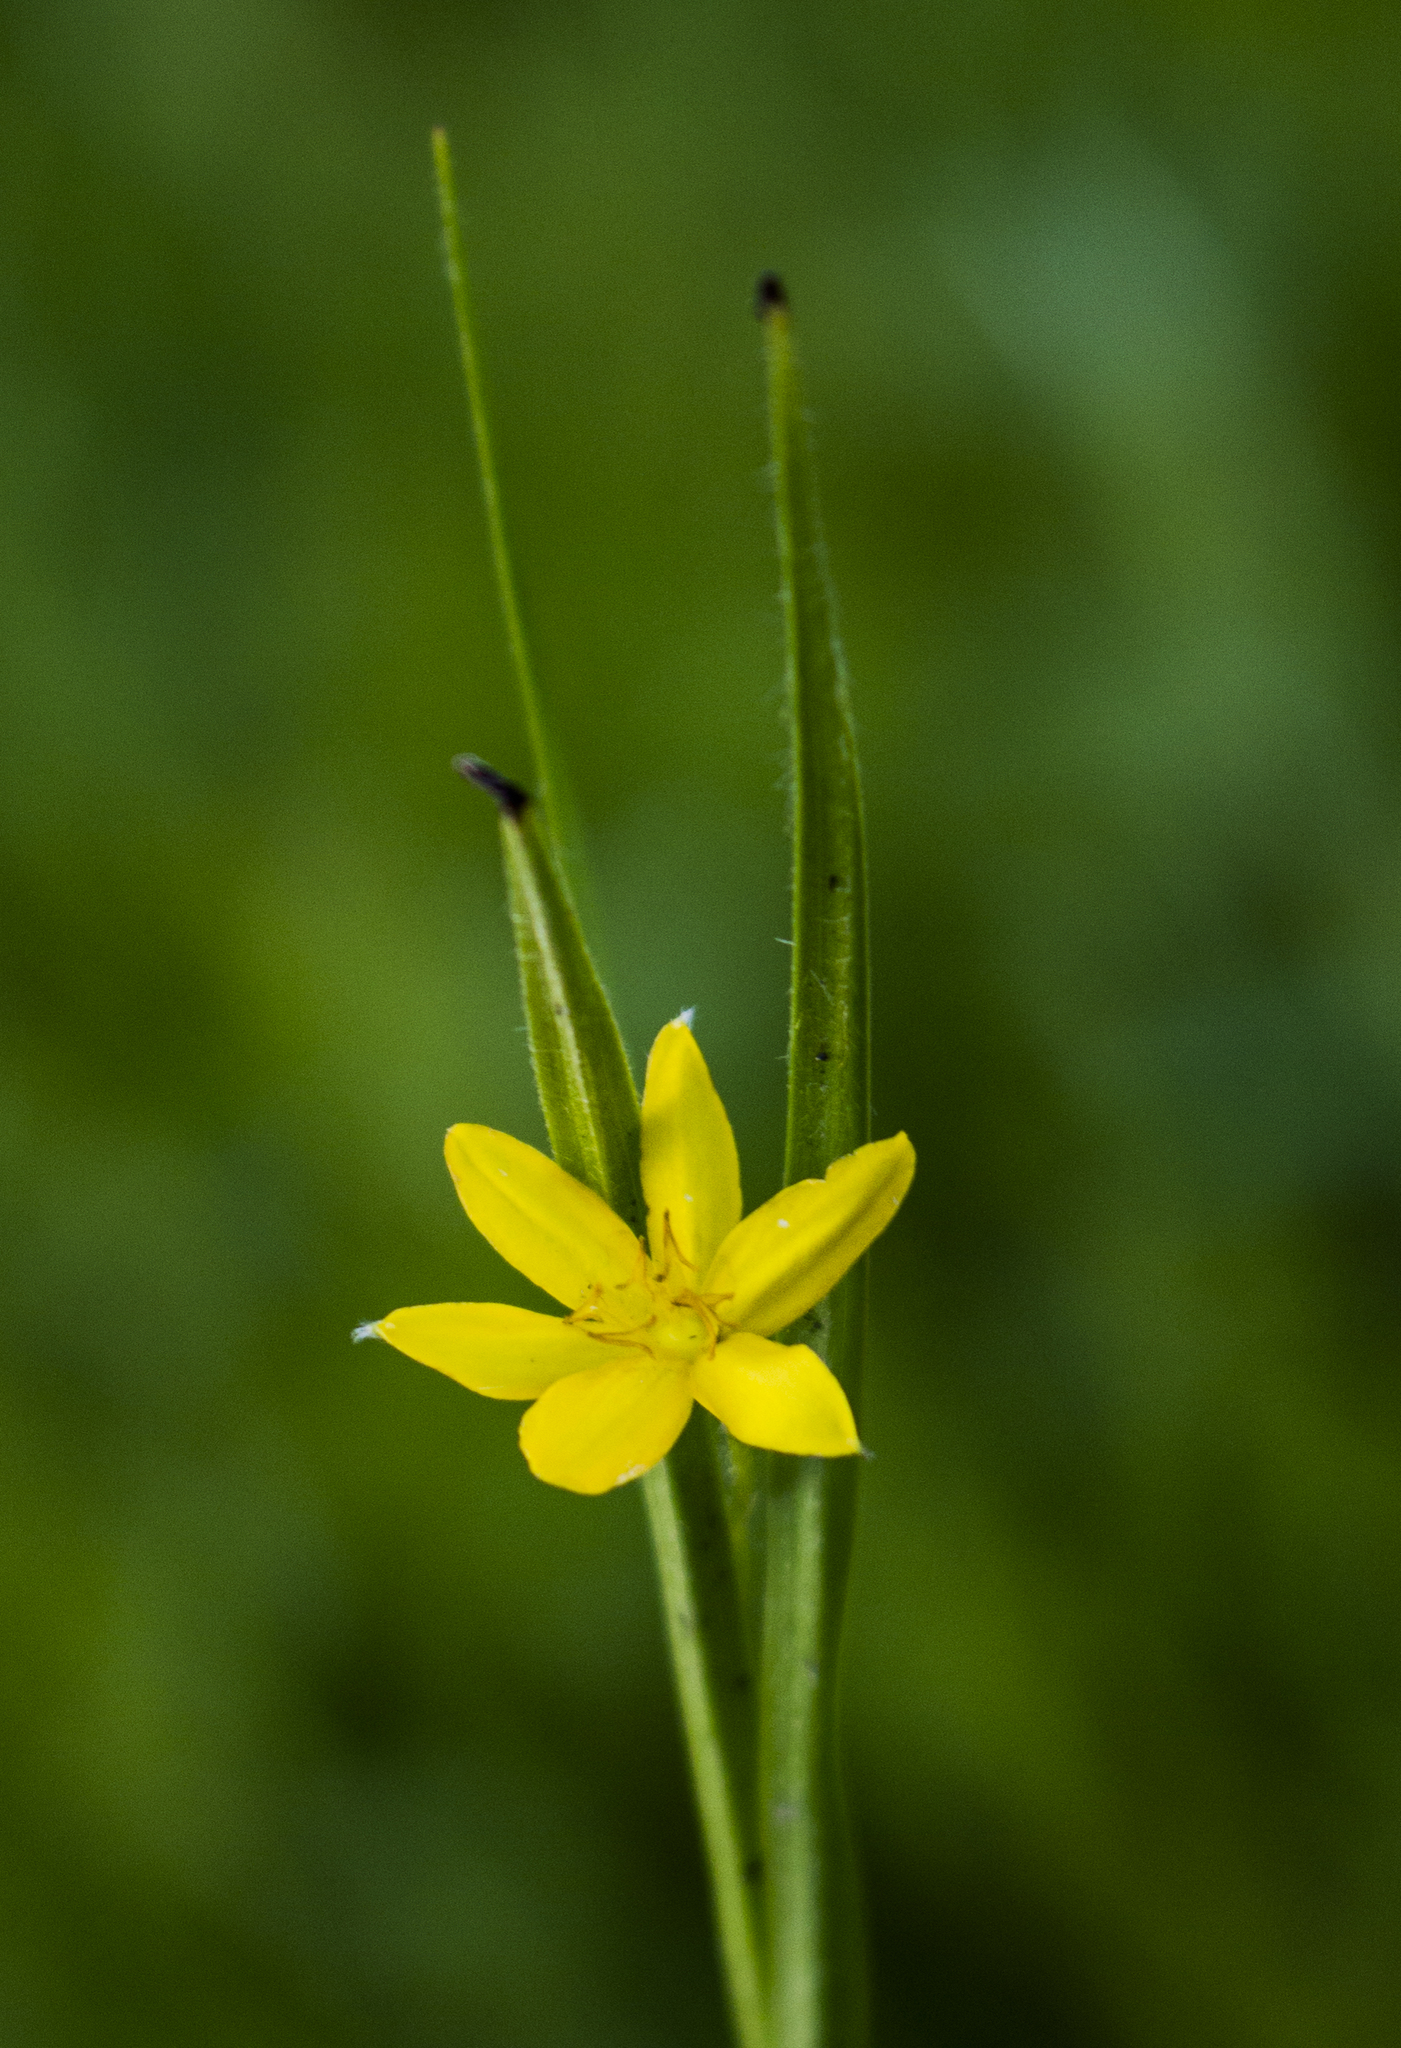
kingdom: Plantae
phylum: Tracheophyta
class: Liliopsida
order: Asparagales
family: Hypoxidaceae
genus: Hypoxis
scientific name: Hypoxis hirsuta
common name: Common goldstar
